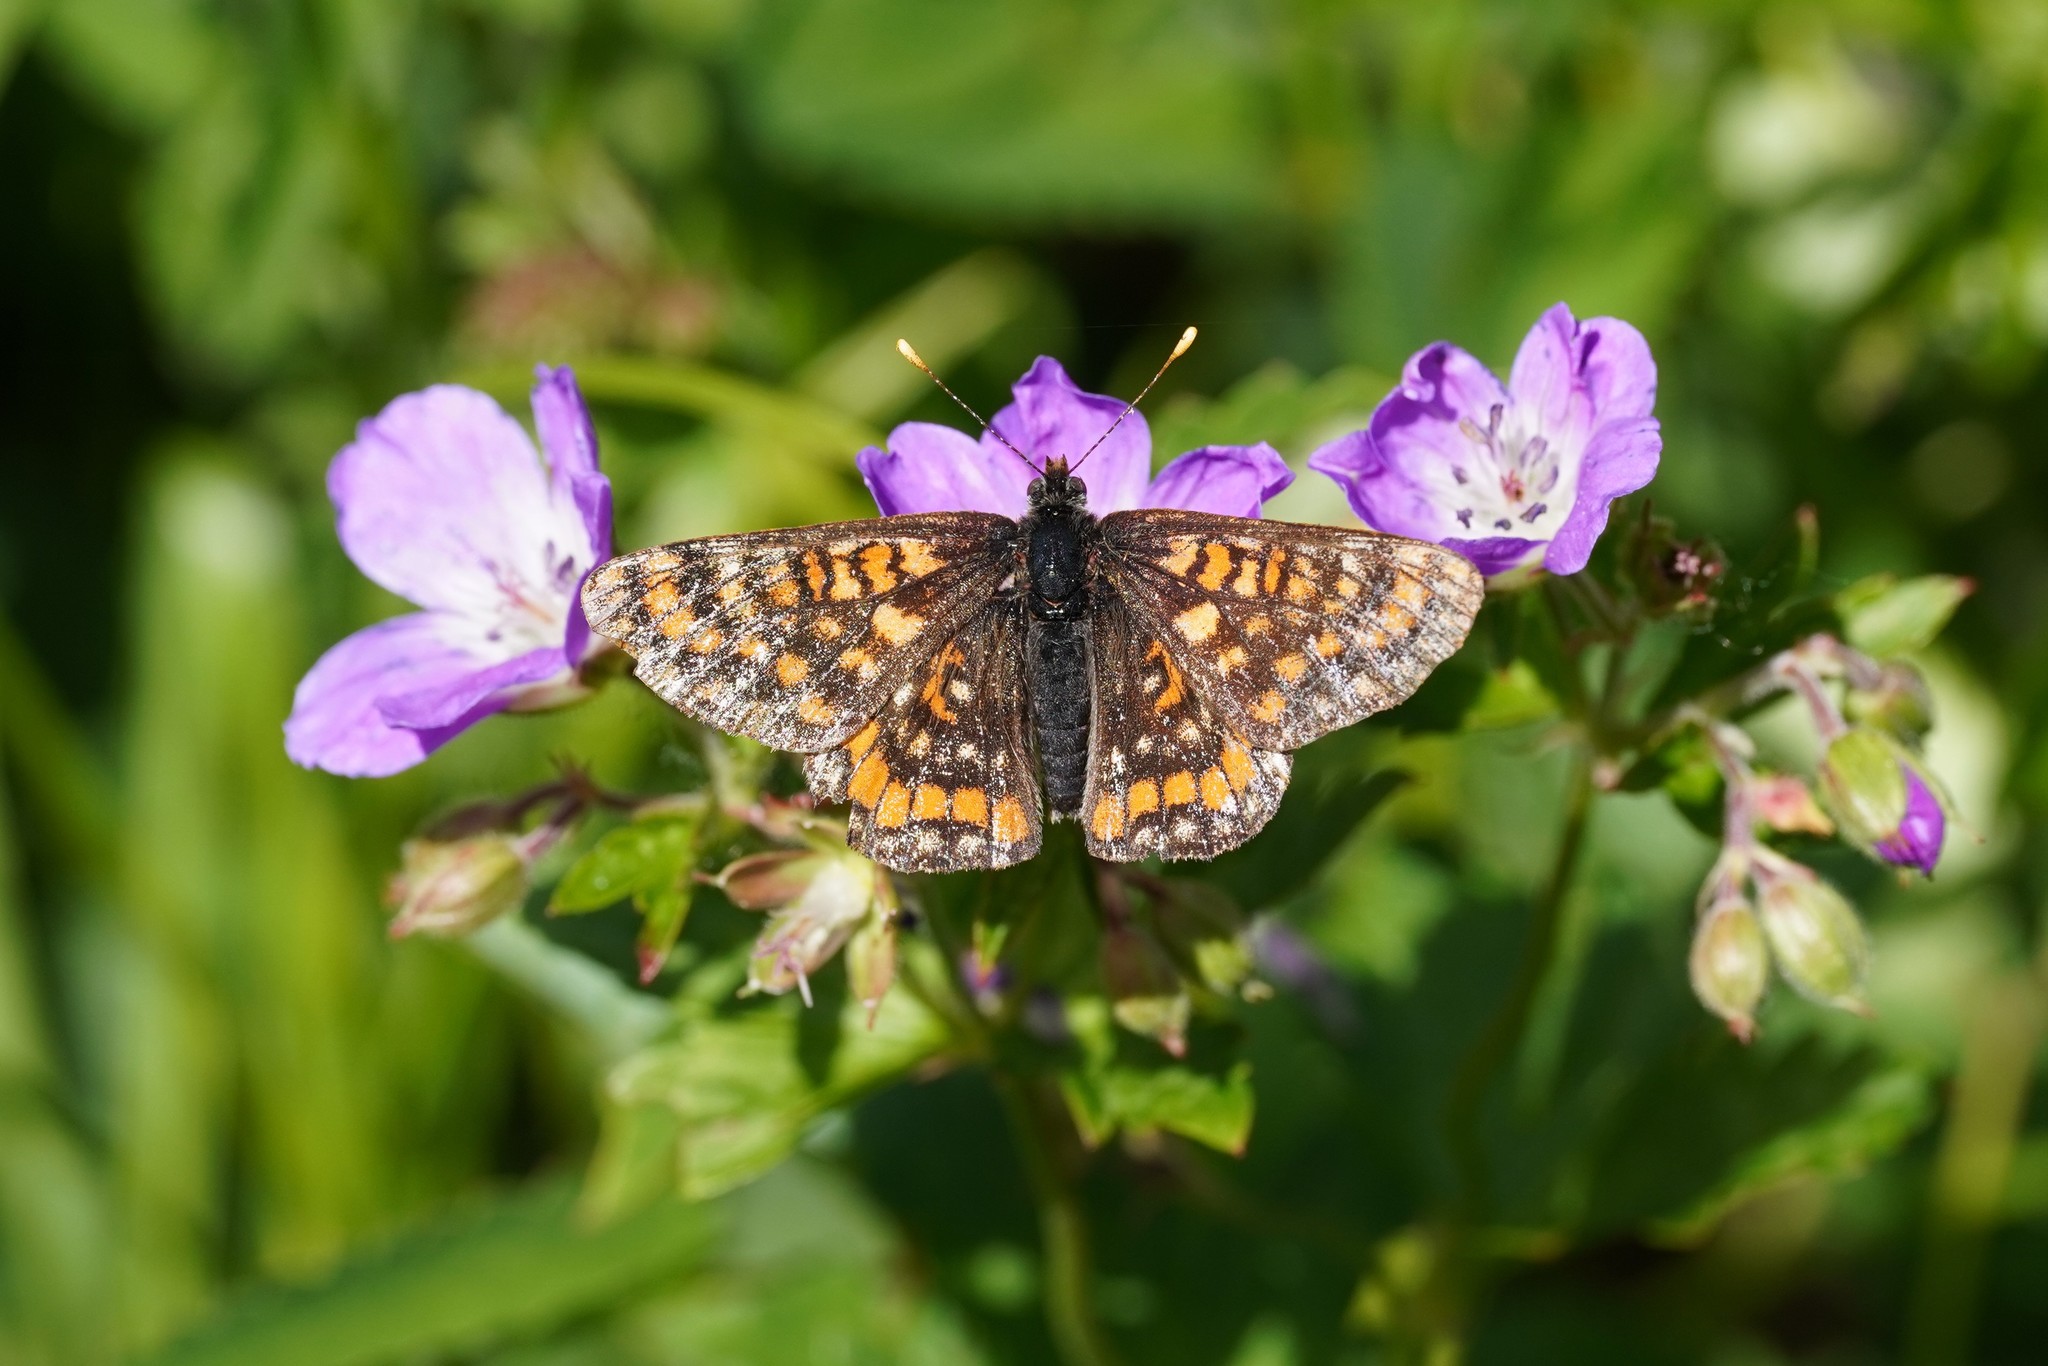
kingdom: Animalia
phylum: Arthropoda
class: Insecta
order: Lepidoptera
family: Nymphalidae
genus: Hypodryas
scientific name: Hypodryas intermedia
